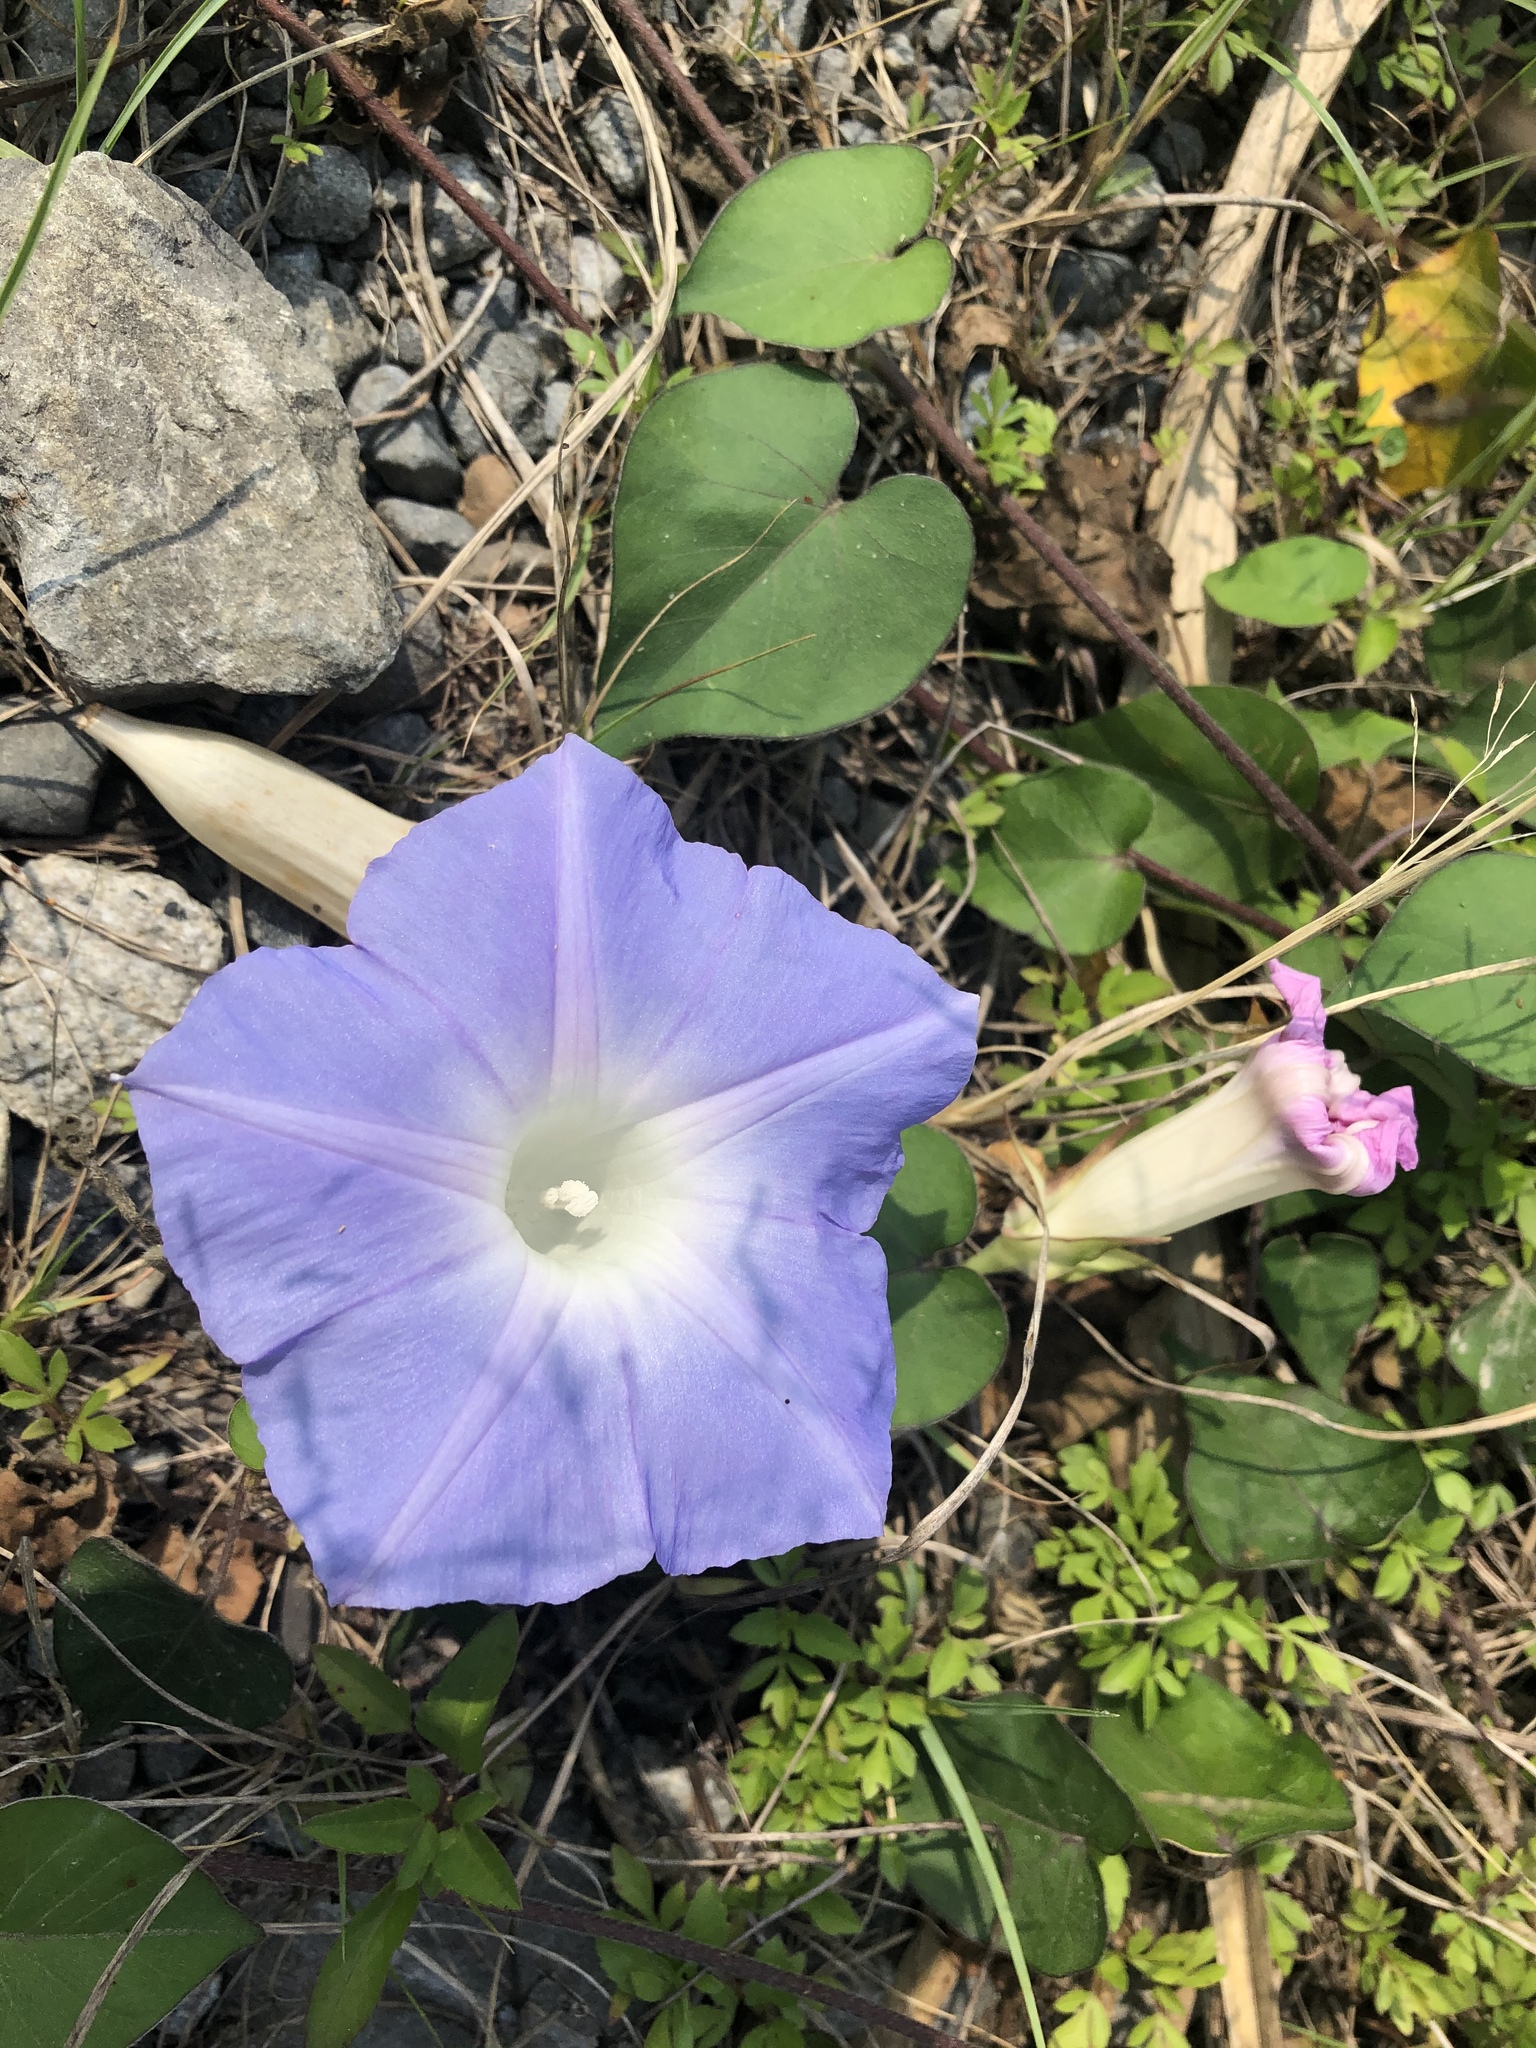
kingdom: Plantae
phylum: Tracheophyta
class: Magnoliopsida
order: Solanales
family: Convolvulaceae
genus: Ipomoea
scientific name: Ipomoea indica
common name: Blue dawnflower
